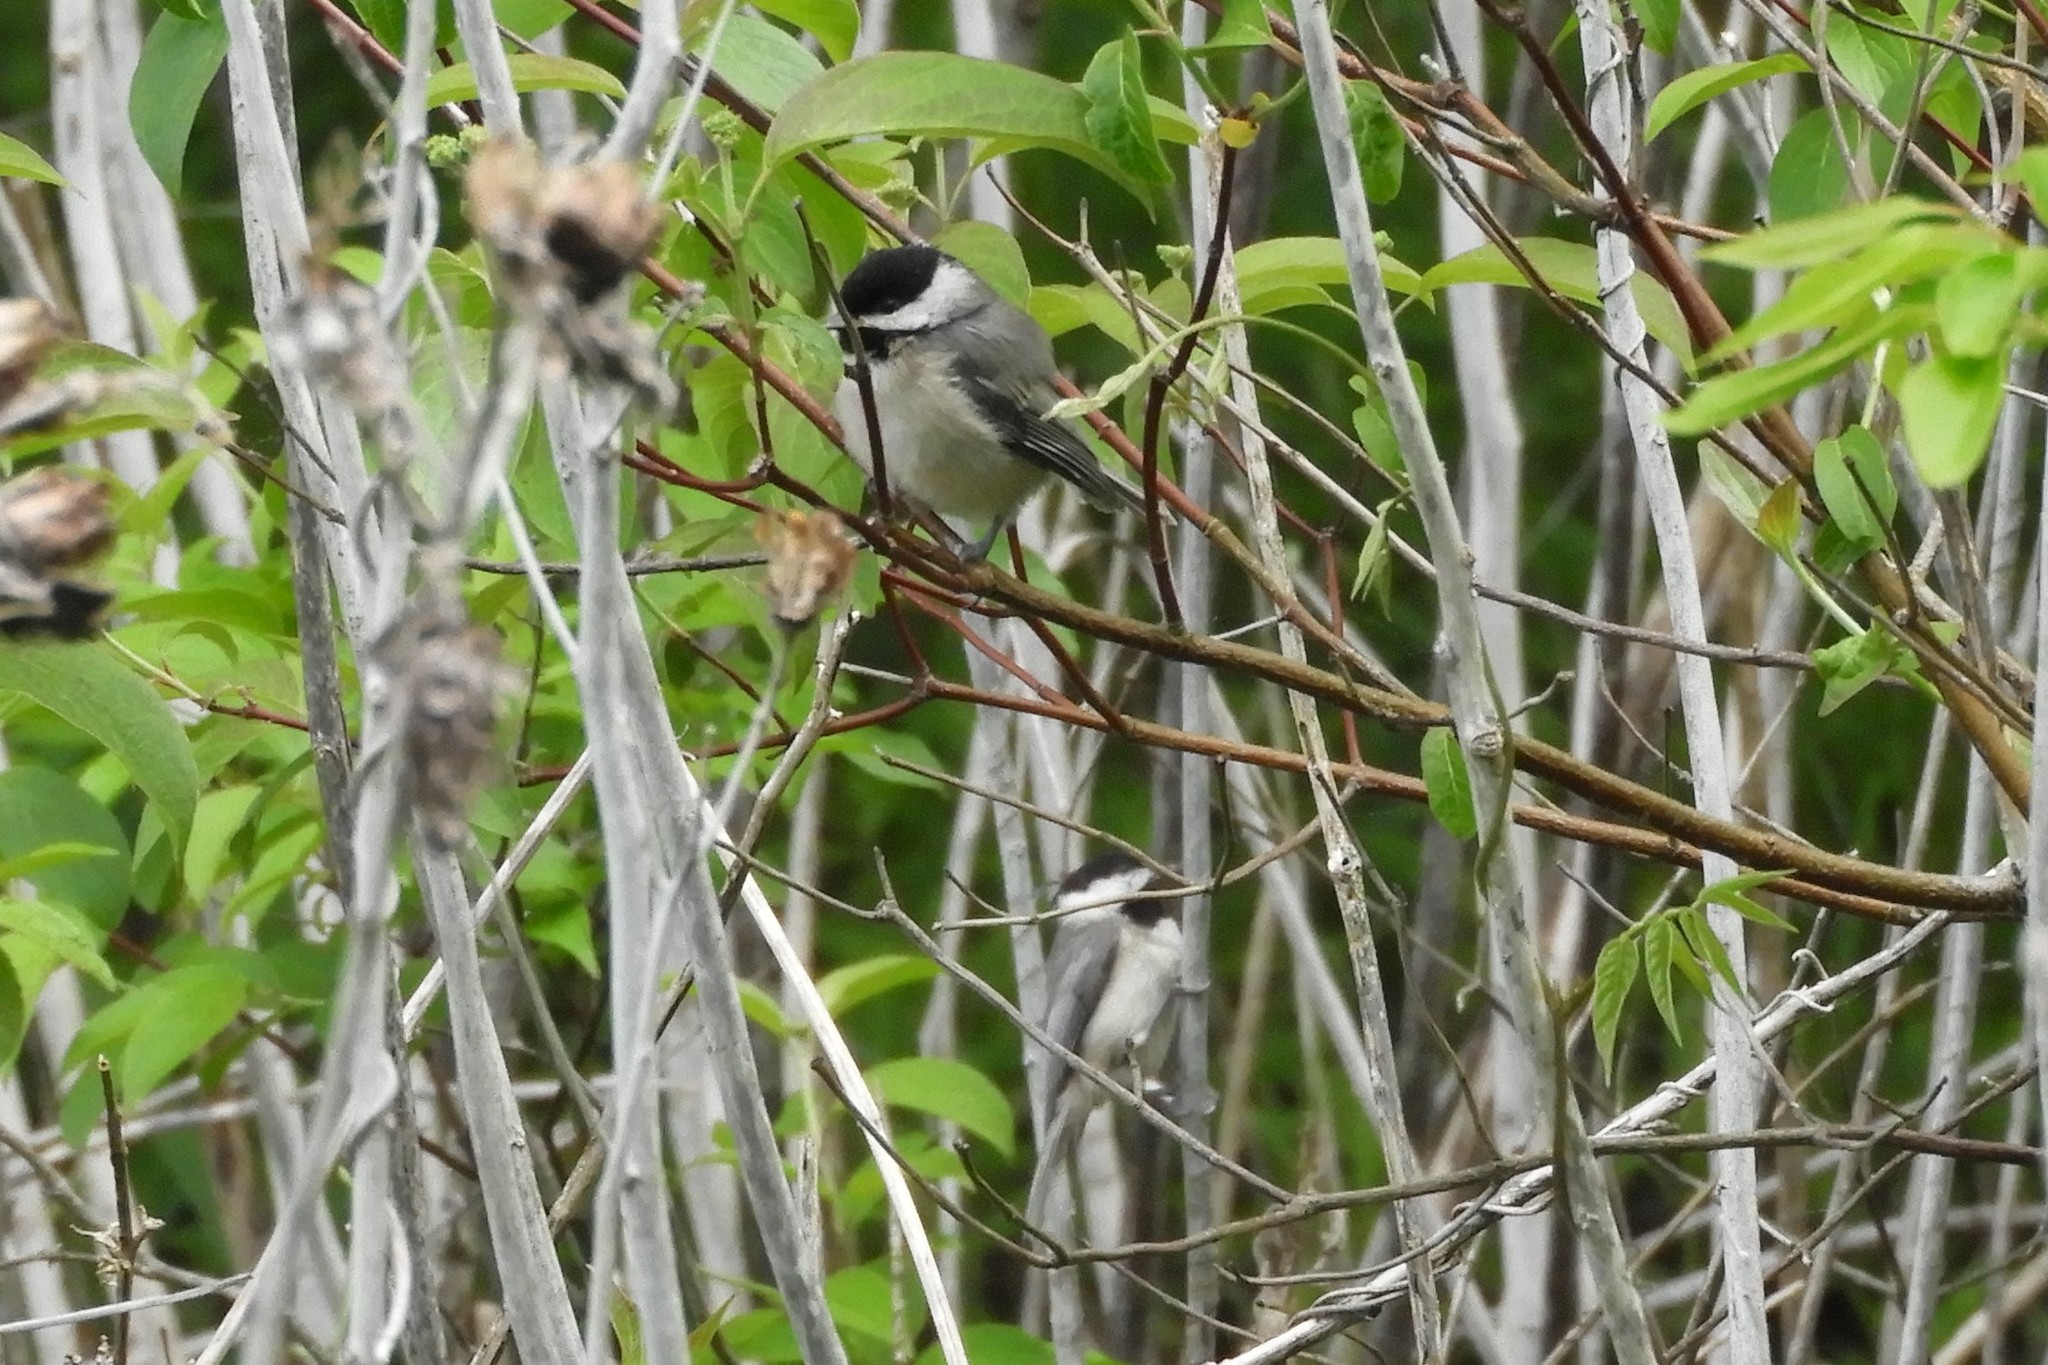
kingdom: Animalia
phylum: Chordata
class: Aves
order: Passeriformes
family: Paridae
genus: Poecile
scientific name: Poecile carolinensis
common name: Carolina chickadee
